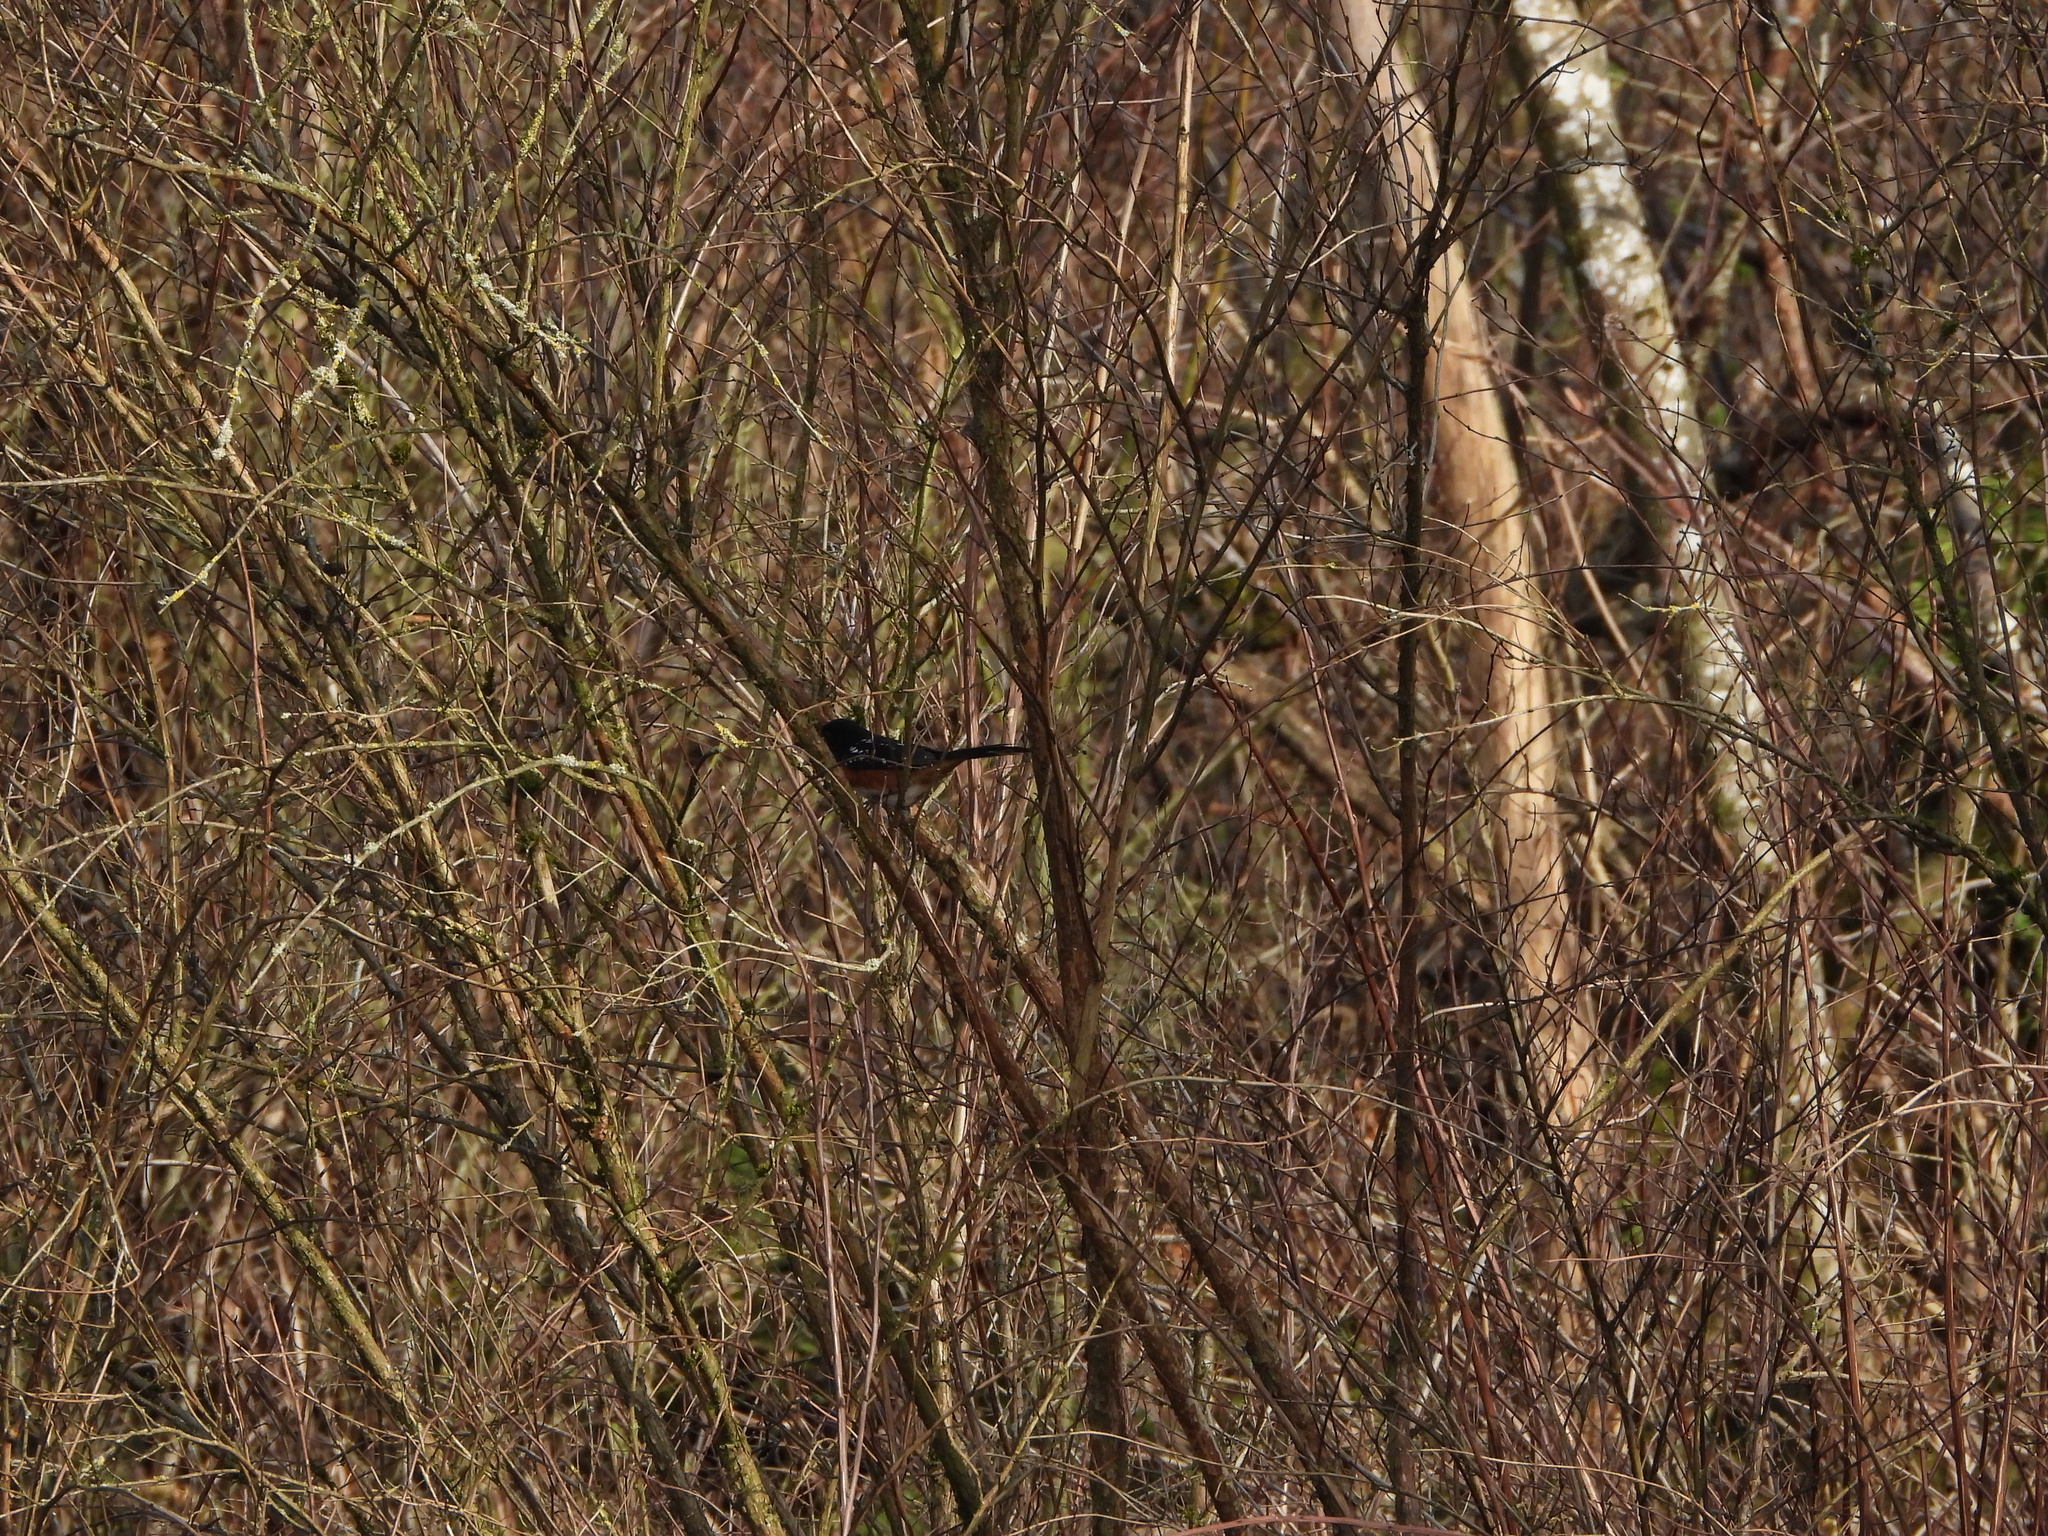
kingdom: Animalia
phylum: Chordata
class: Aves
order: Passeriformes
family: Passerellidae
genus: Pipilo
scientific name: Pipilo maculatus
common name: Spotted towhee
